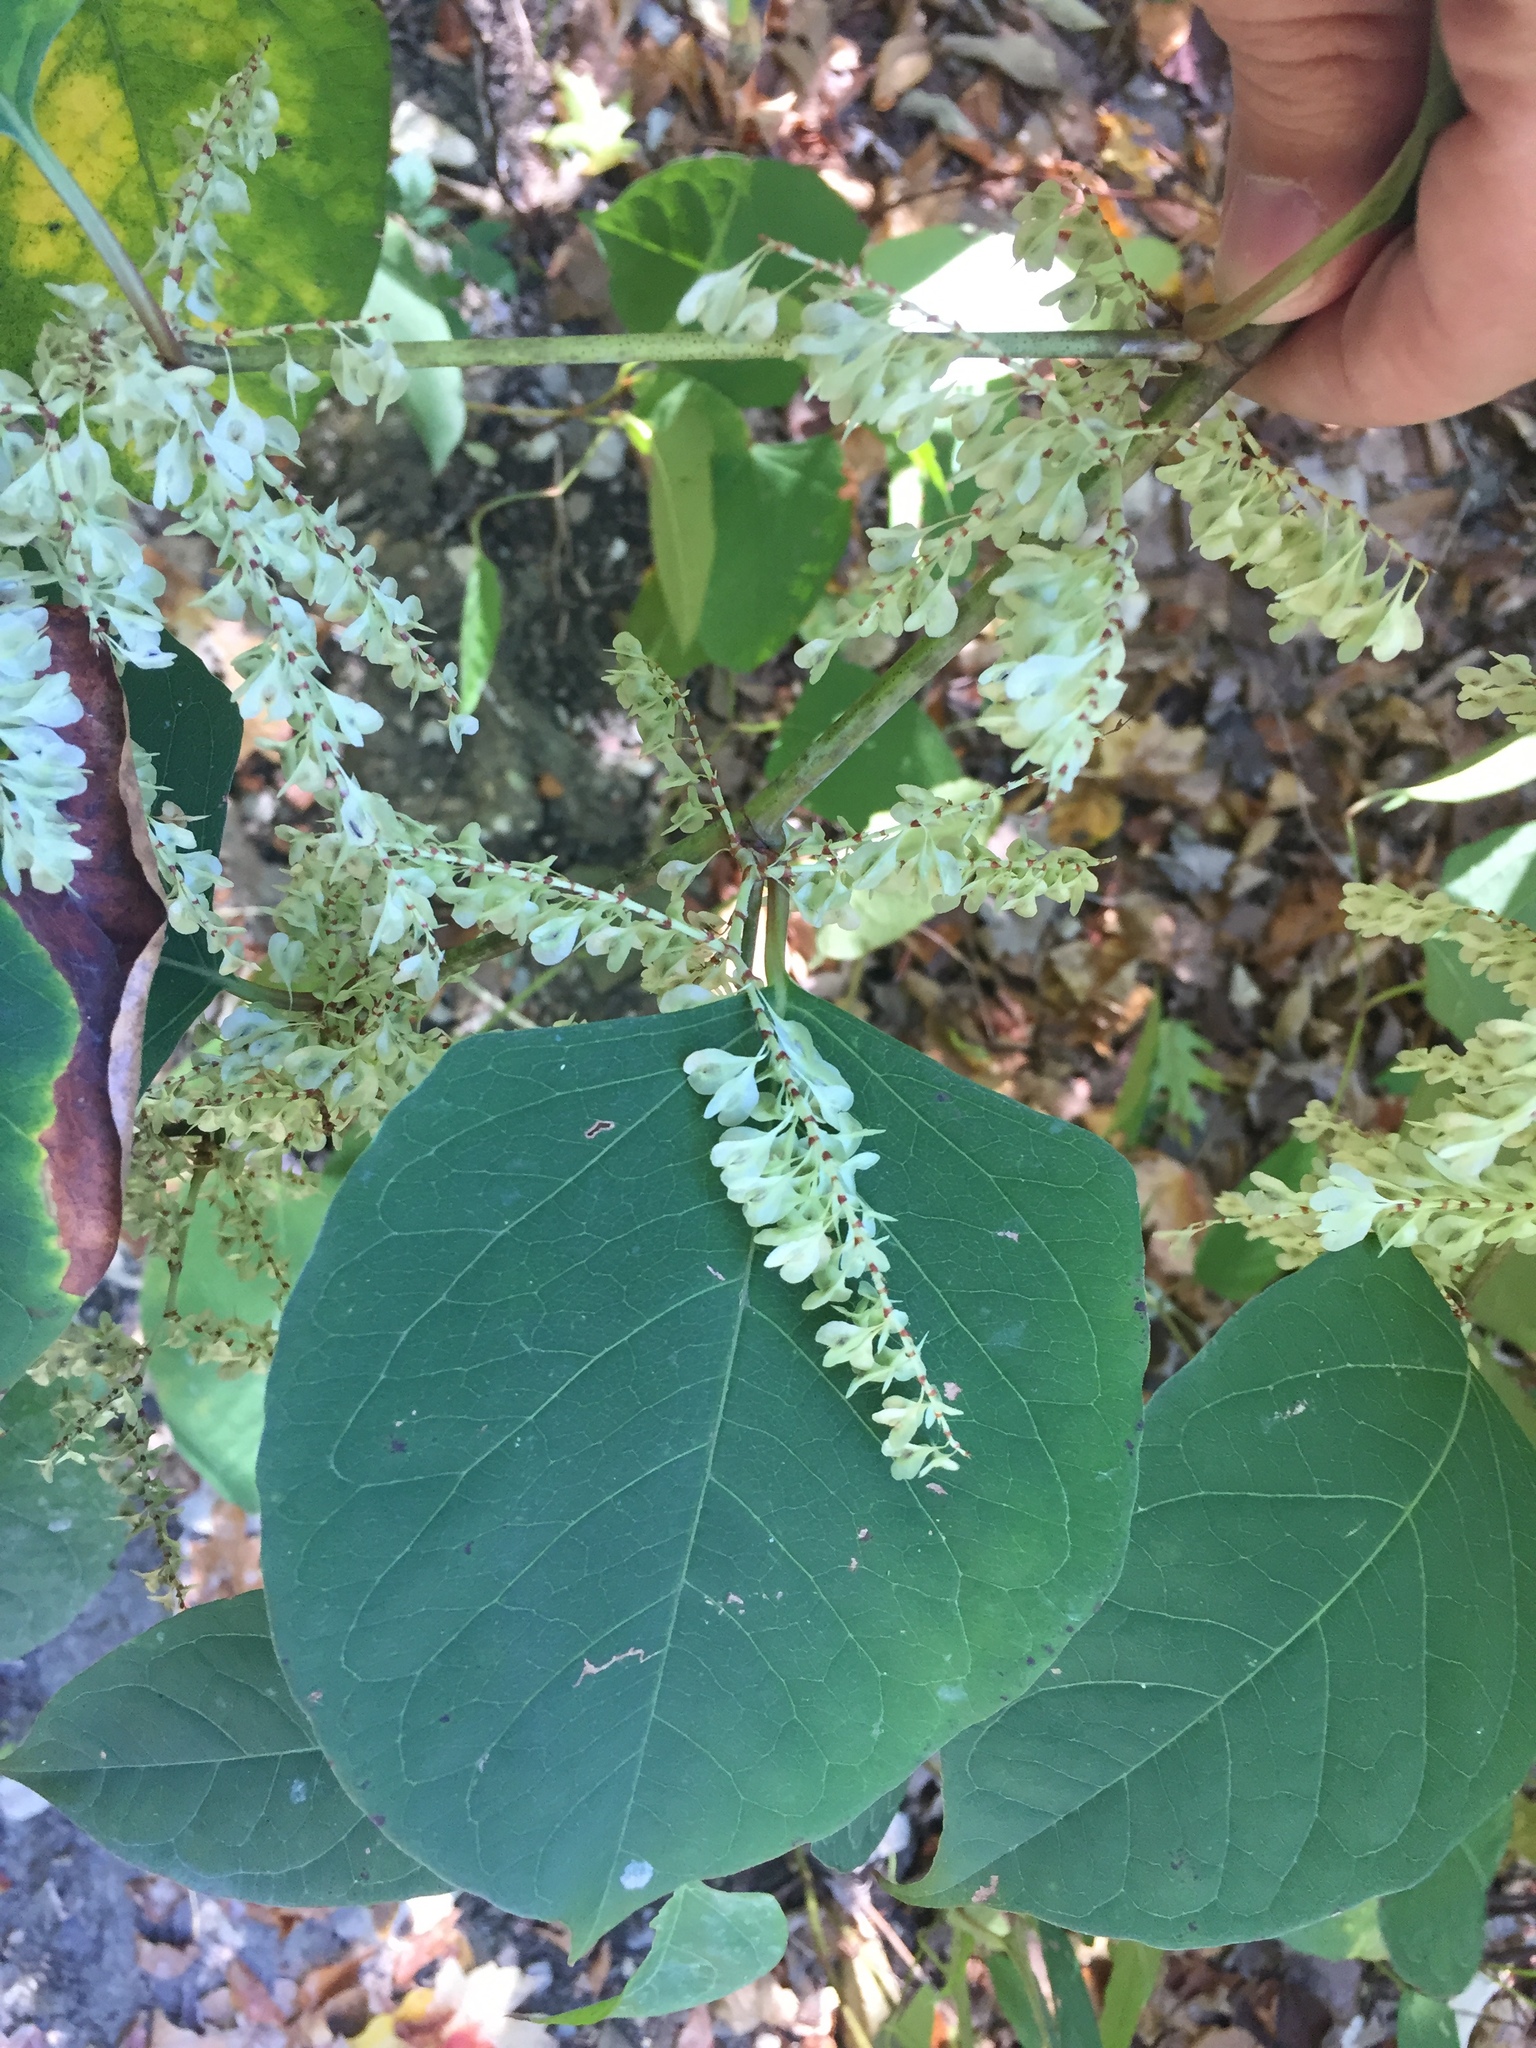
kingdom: Plantae
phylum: Tracheophyta
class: Magnoliopsida
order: Caryophyllales
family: Polygonaceae
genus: Reynoutria
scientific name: Reynoutria japonica
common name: Japanese knotweed
